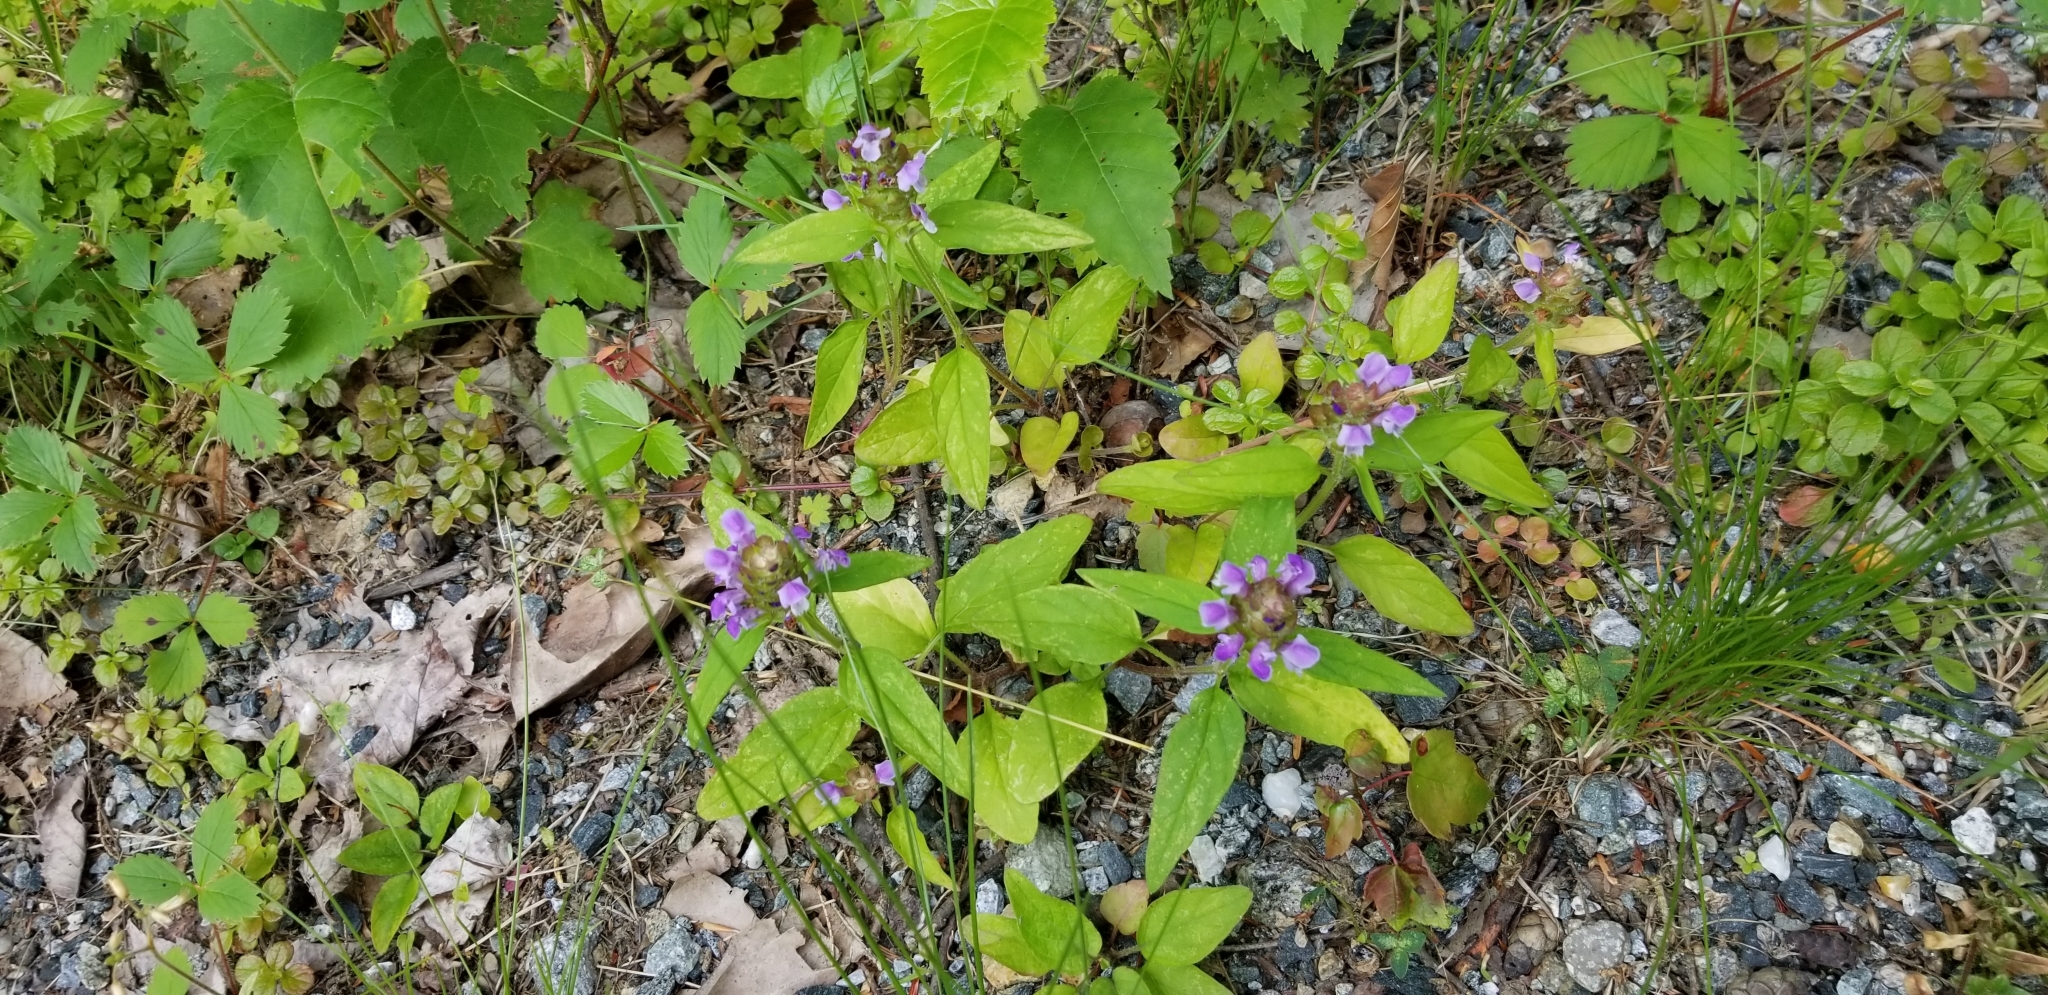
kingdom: Plantae
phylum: Tracheophyta
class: Magnoliopsida
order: Lamiales
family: Lamiaceae
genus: Prunella
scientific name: Prunella vulgaris
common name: Heal-all
